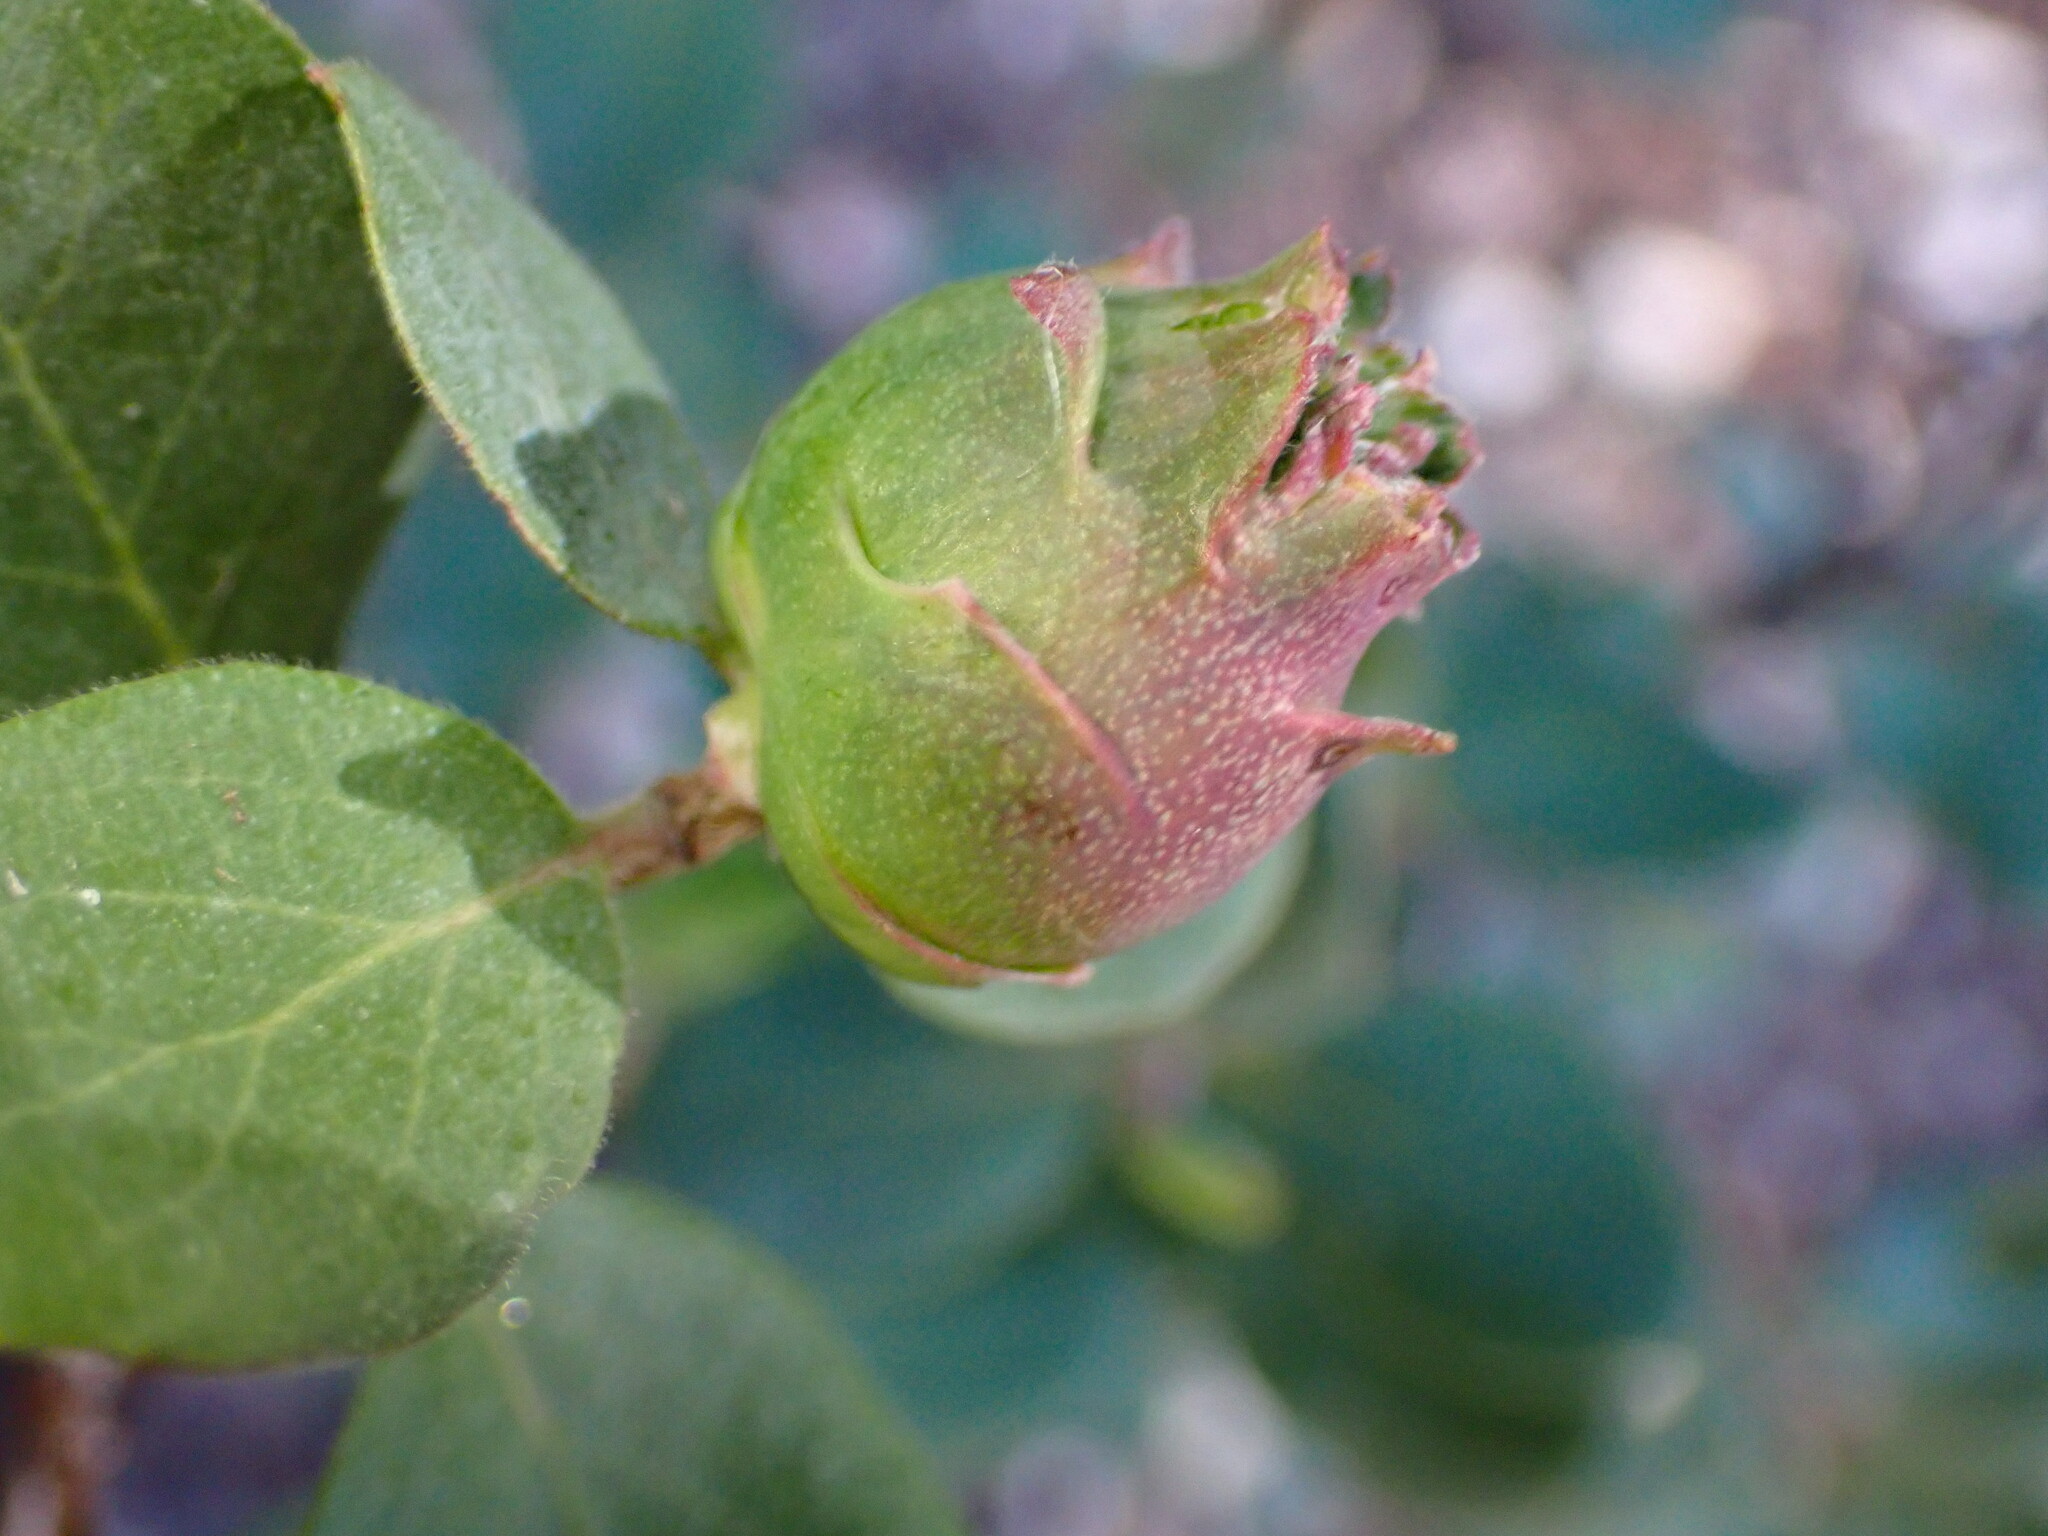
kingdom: Animalia
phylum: Arthropoda
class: Insecta
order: Diptera
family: Cecidomyiidae
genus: Lonicerae
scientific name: Lonicerae
